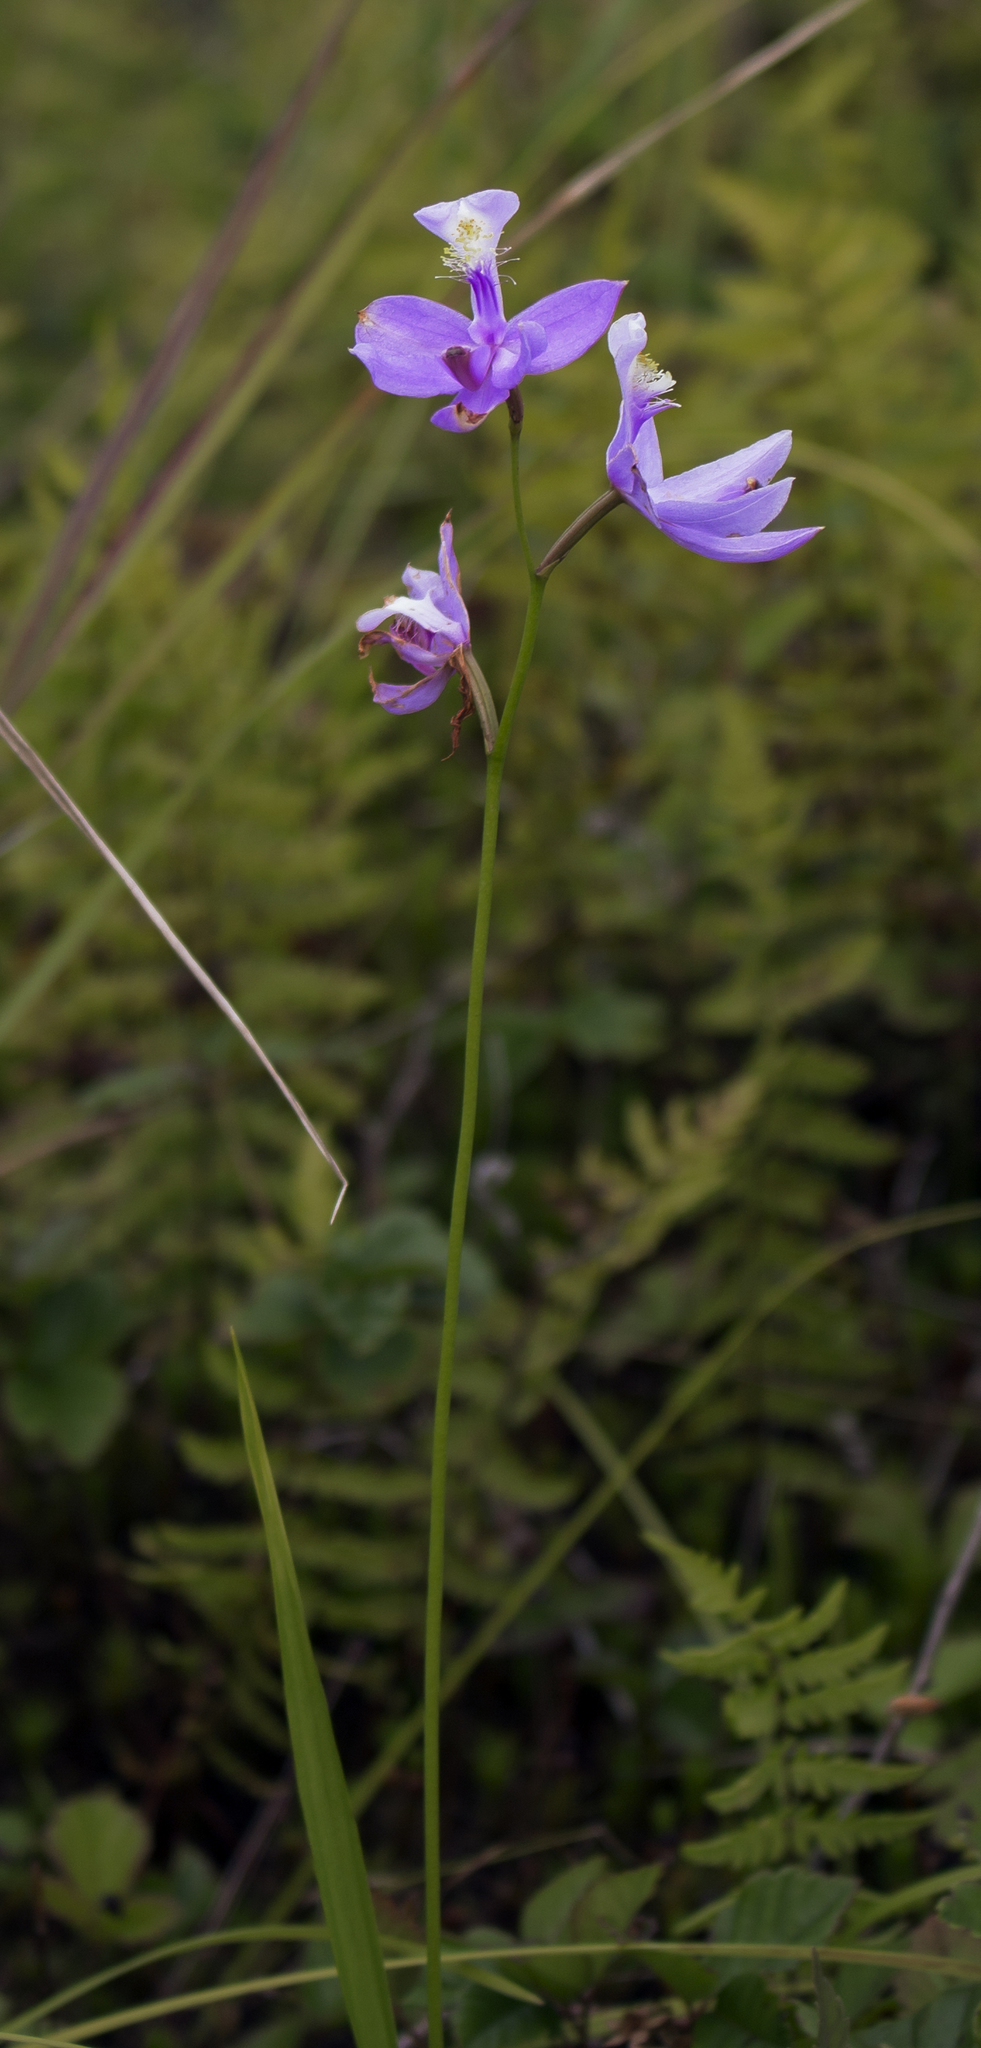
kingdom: Plantae
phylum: Tracheophyta
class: Liliopsida
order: Asparagales
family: Orchidaceae
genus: Calopogon
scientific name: Calopogon tuberosus
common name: Grass-pink
